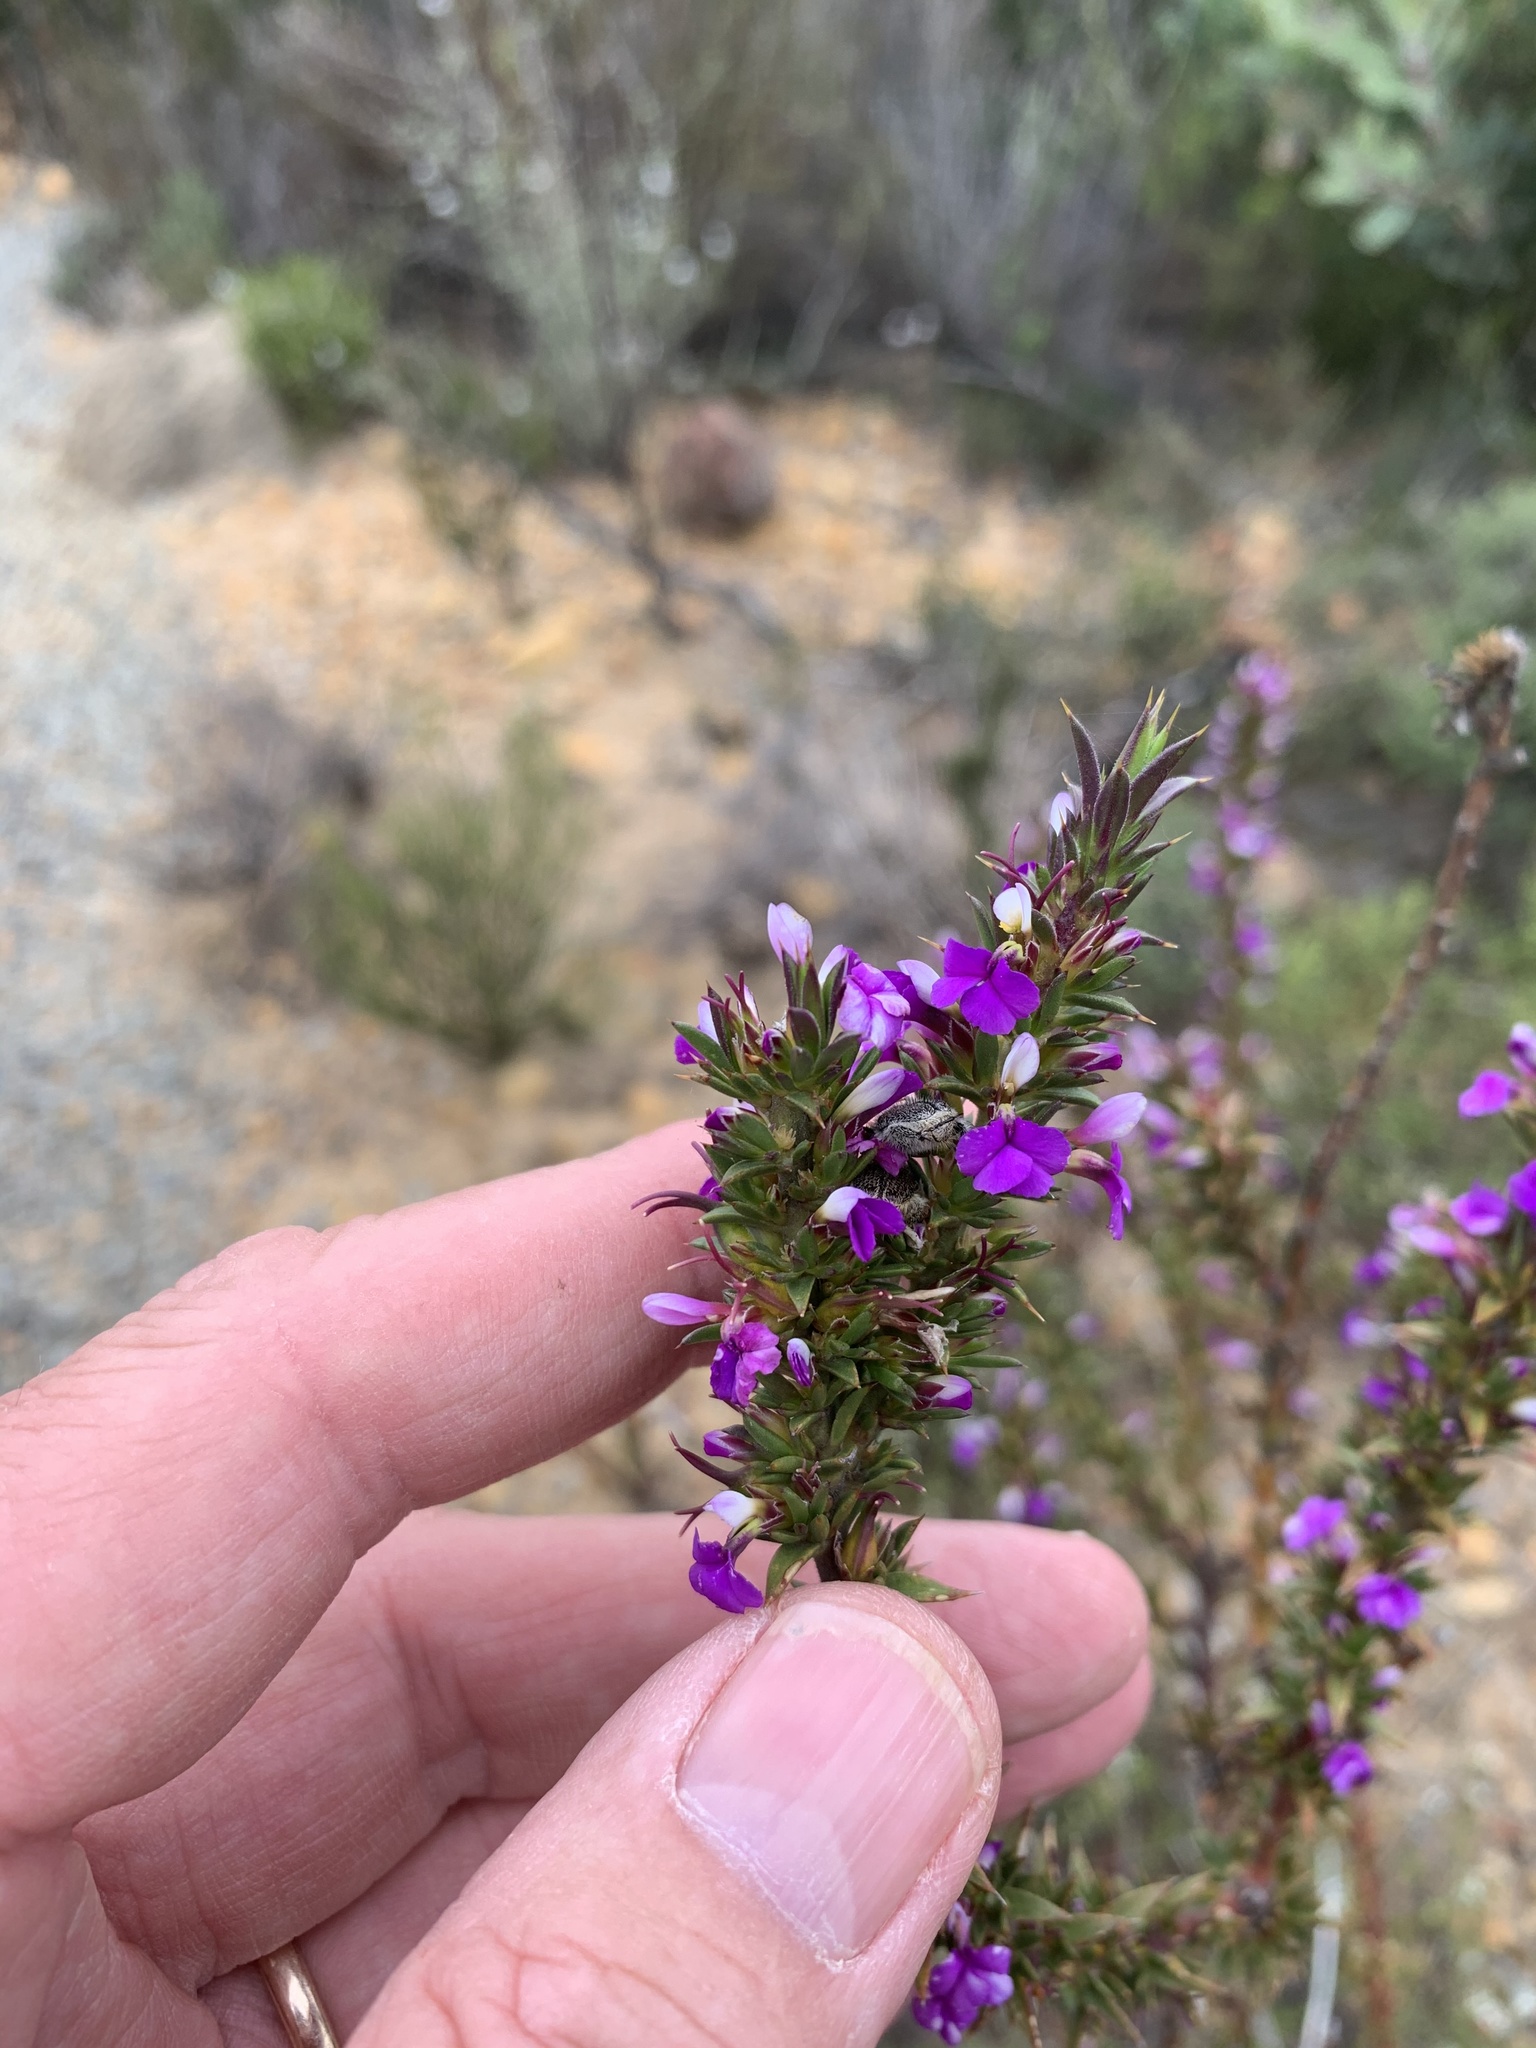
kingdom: Plantae
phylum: Tracheophyta
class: Magnoliopsida
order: Fabales
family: Polygalaceae
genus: Muraltia
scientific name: Muraltia heisteria
